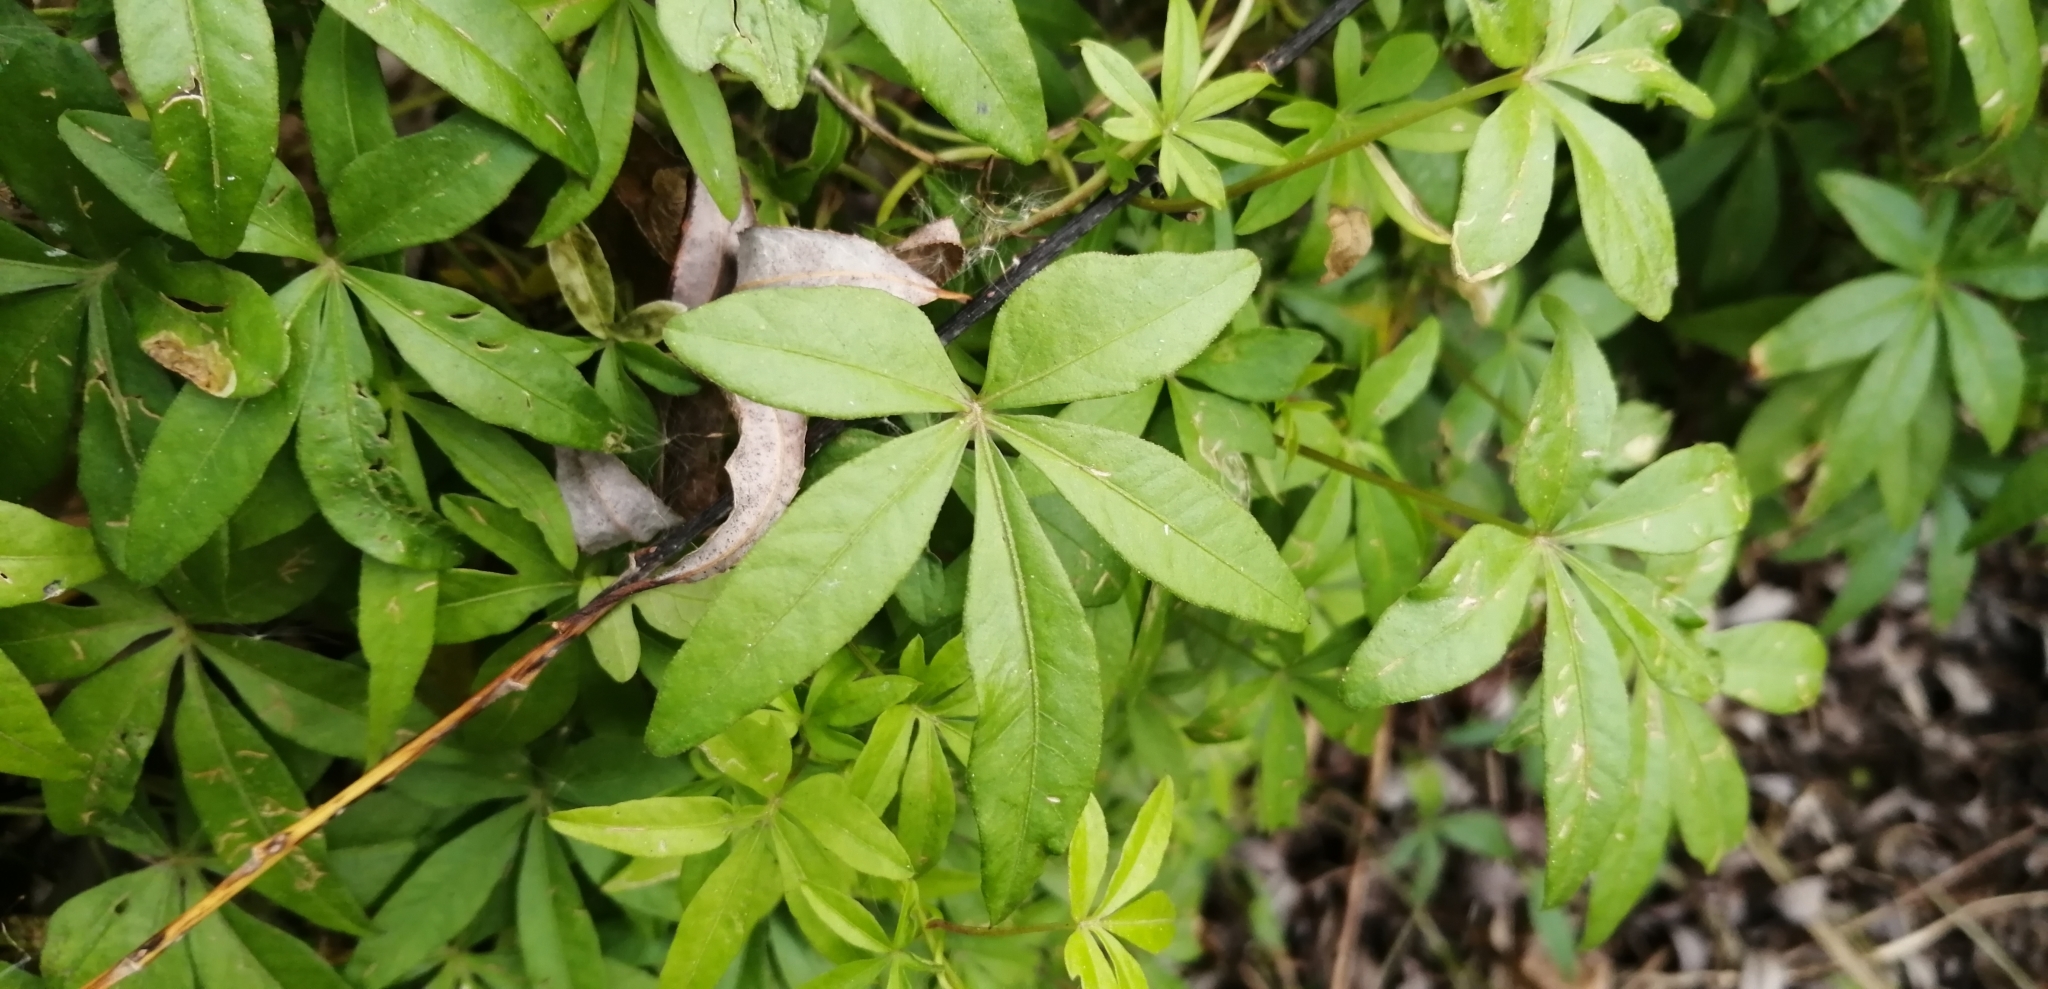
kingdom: Plantae
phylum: Tracheophyta
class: Magnoliopsida
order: Solanales
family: Convolvulaceae
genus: Ipomoea
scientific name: Ipomoea cairica
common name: Mile a minute vine
